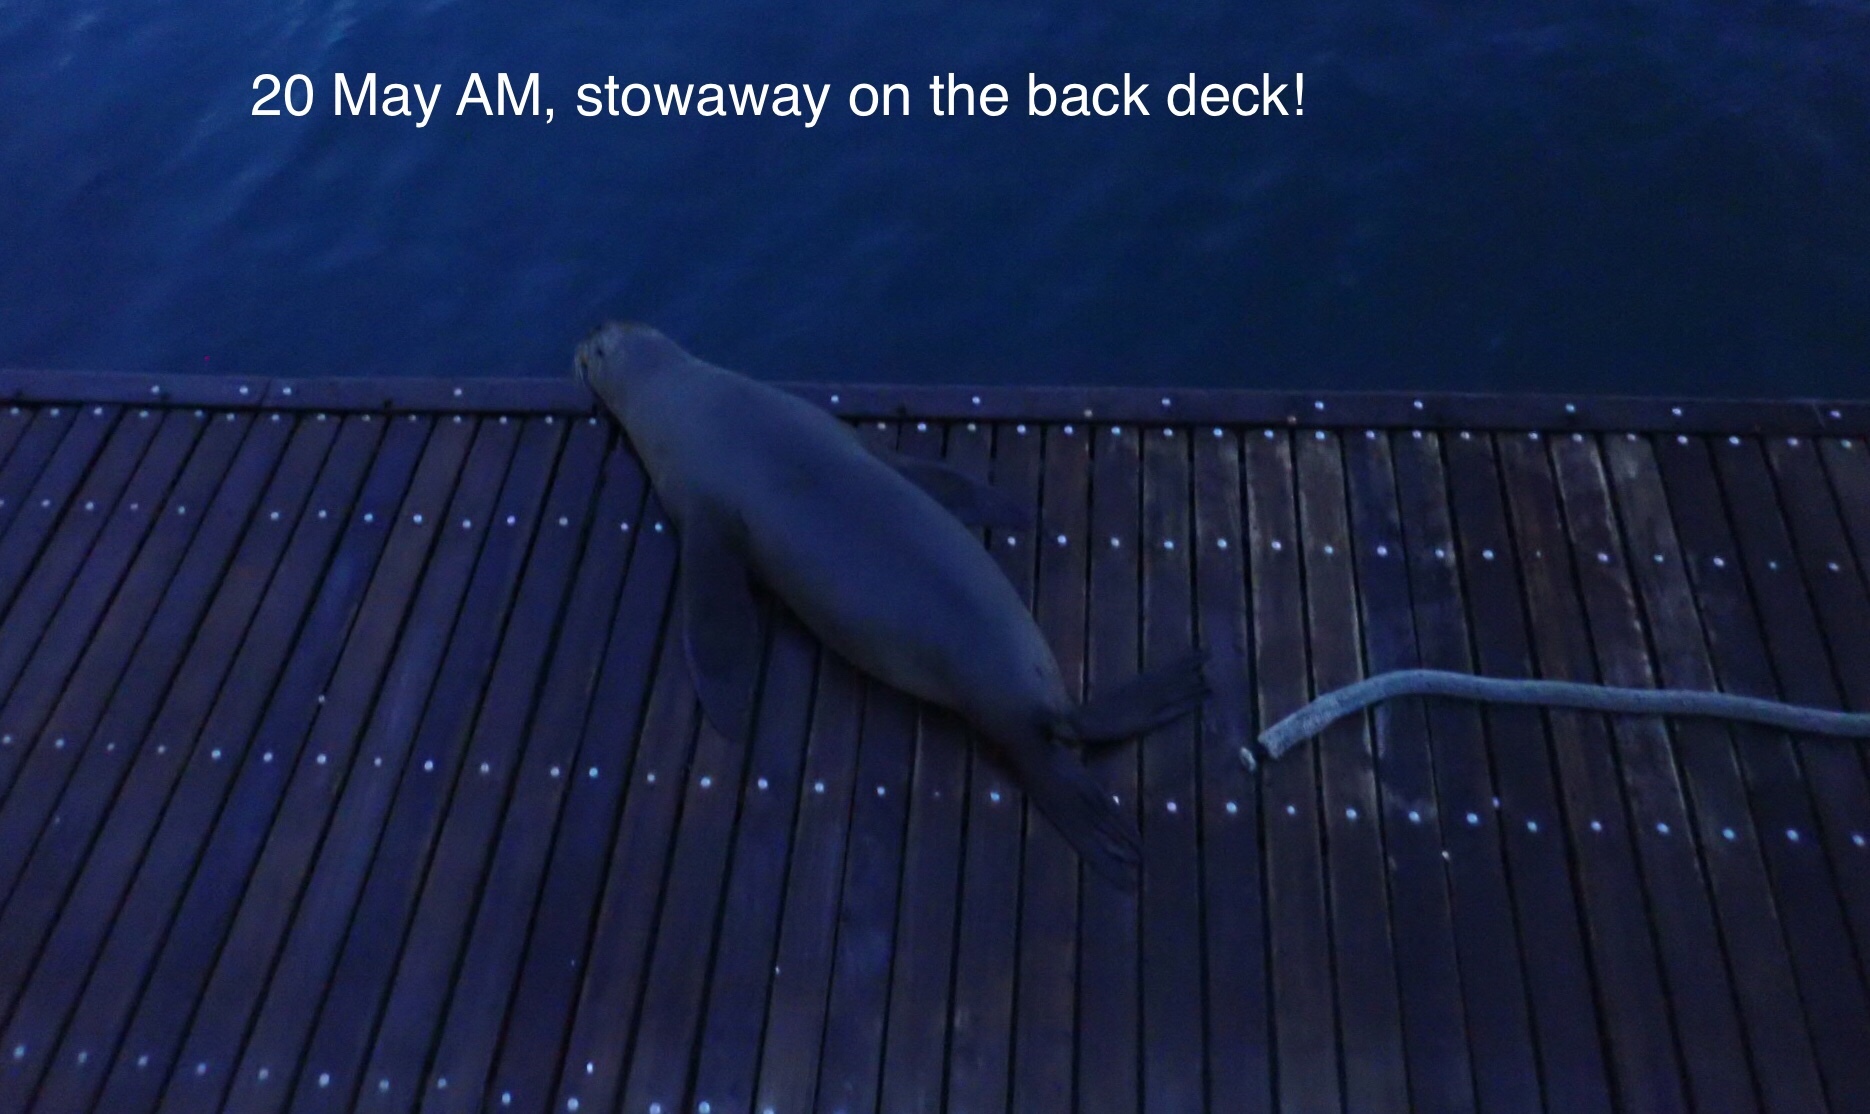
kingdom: Animalia
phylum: Chordata
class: Mammalia
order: Carnivora
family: Otariidae
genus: Zalophus
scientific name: Zalophus wollebaeki
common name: Galapagos sea lion
